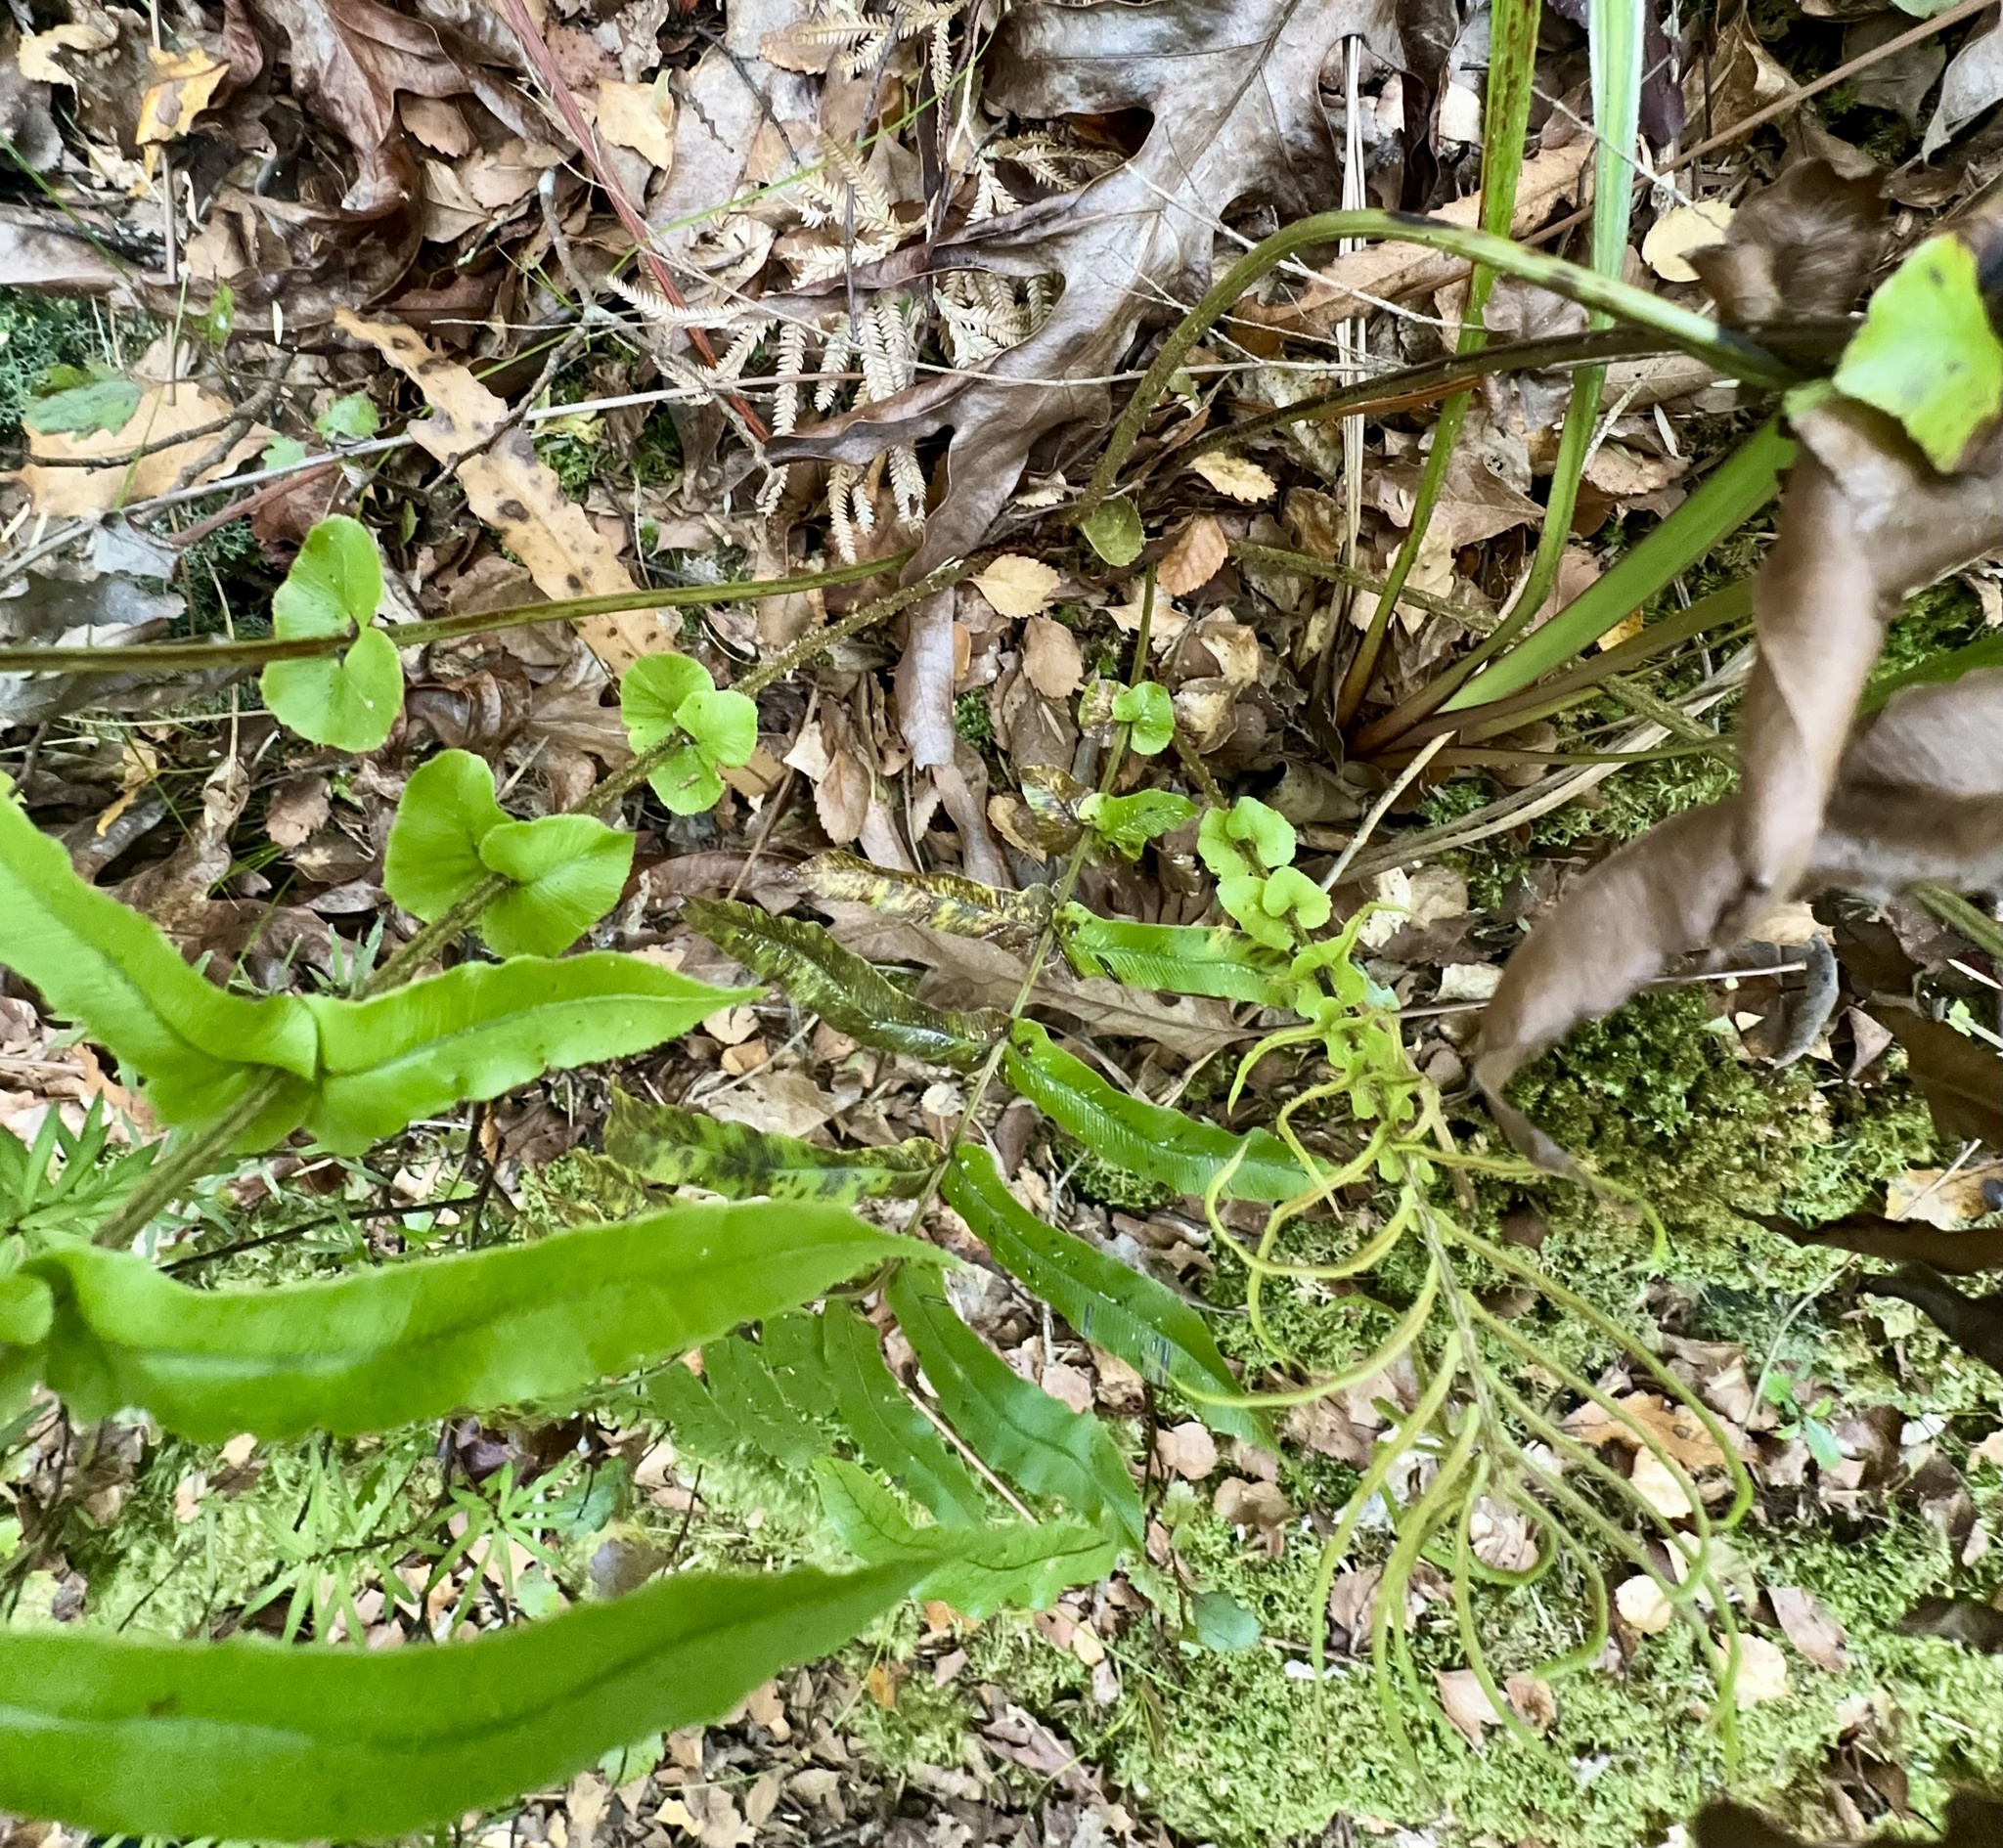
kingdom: Plantae
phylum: Tracheophyta
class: Polypodiopsida
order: Polypodiales
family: Blechnaceae
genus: Parablechnum
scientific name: Parablechnum novae-zelandiae
